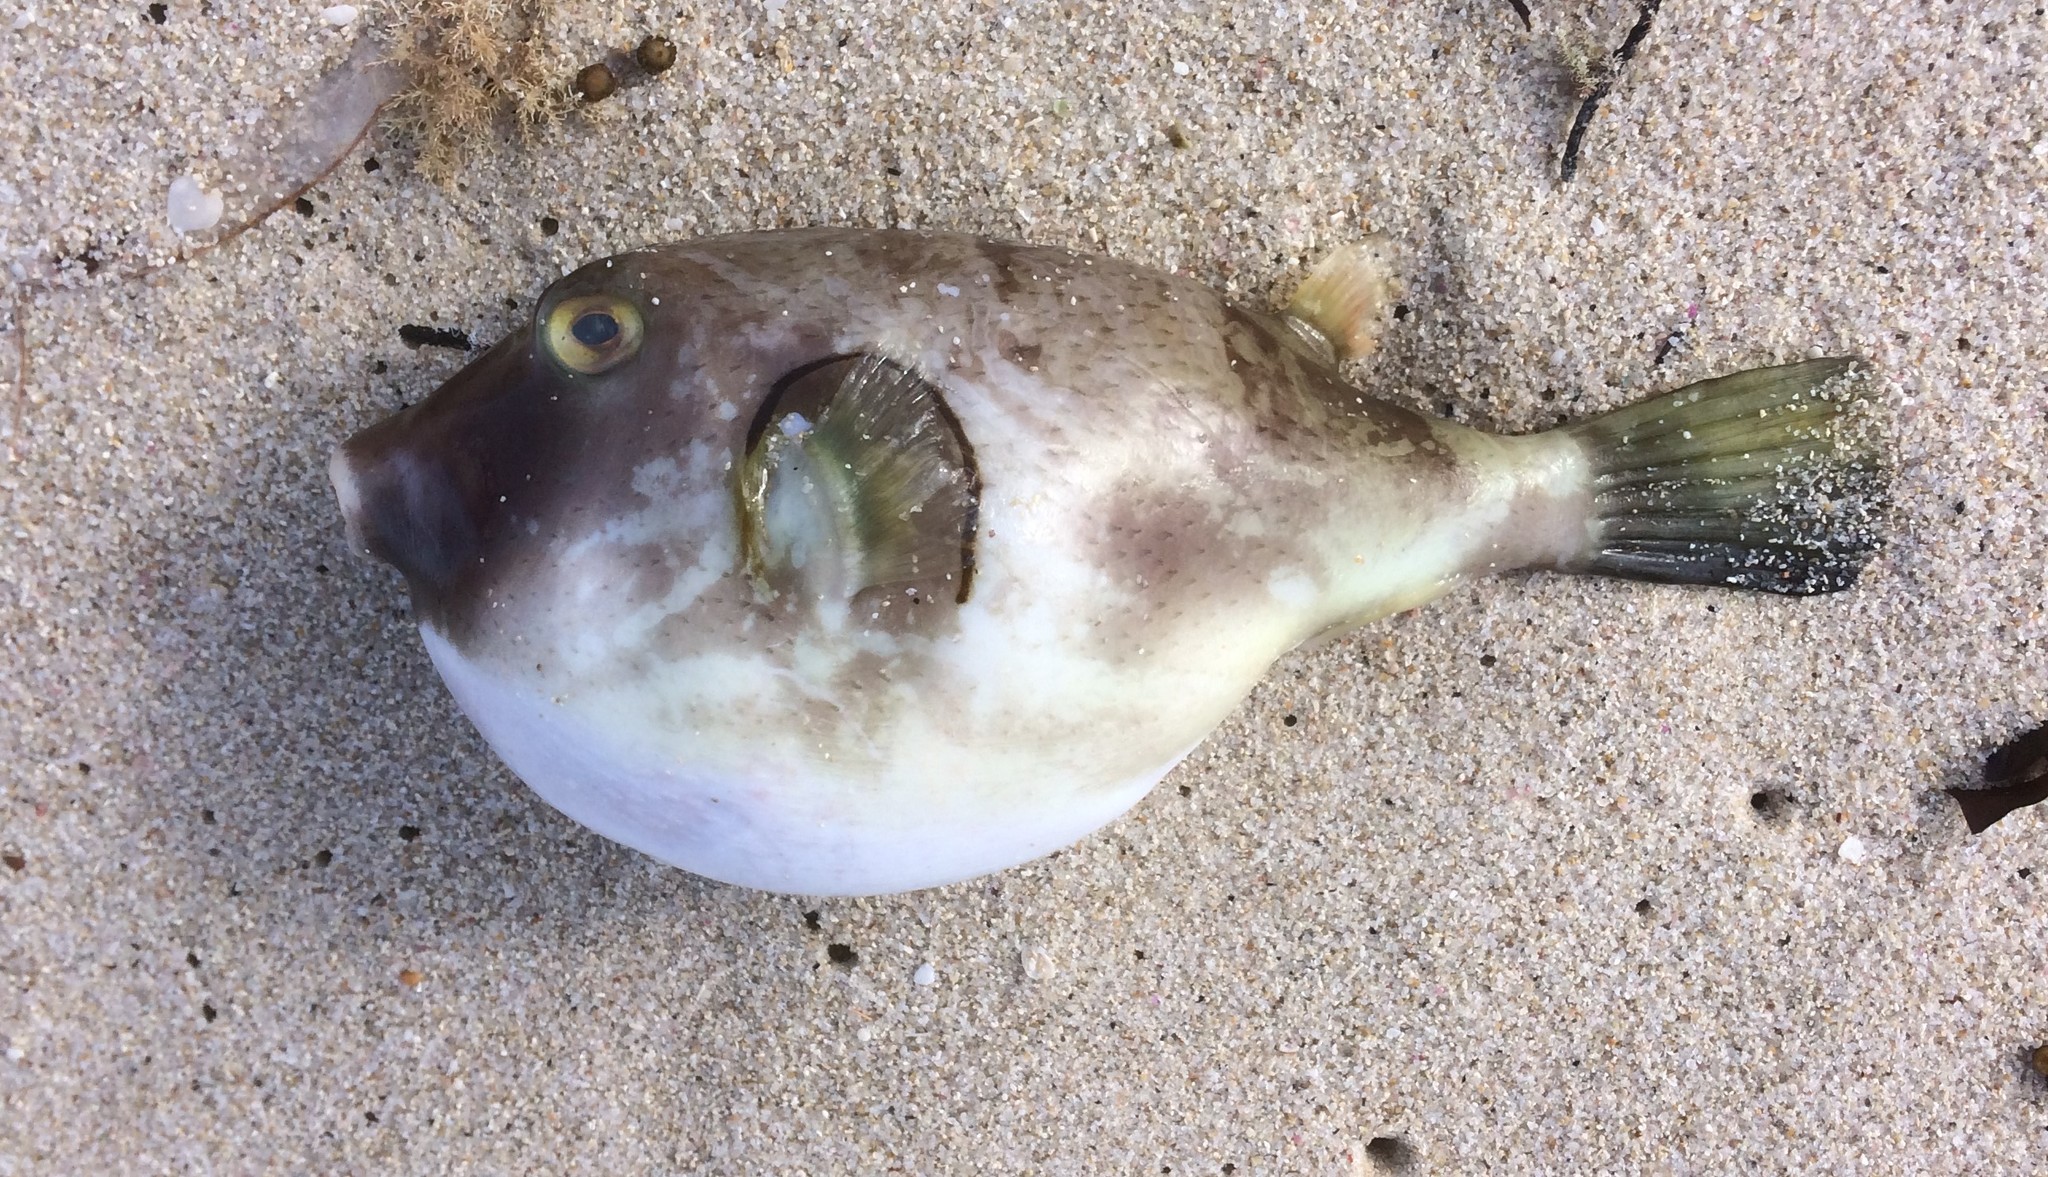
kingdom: Animalia
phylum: Chordata
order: Tetraodontiformes
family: Tetraodontidae
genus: Omegophora
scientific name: Omegophora armilla
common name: Ringed pufferfish
